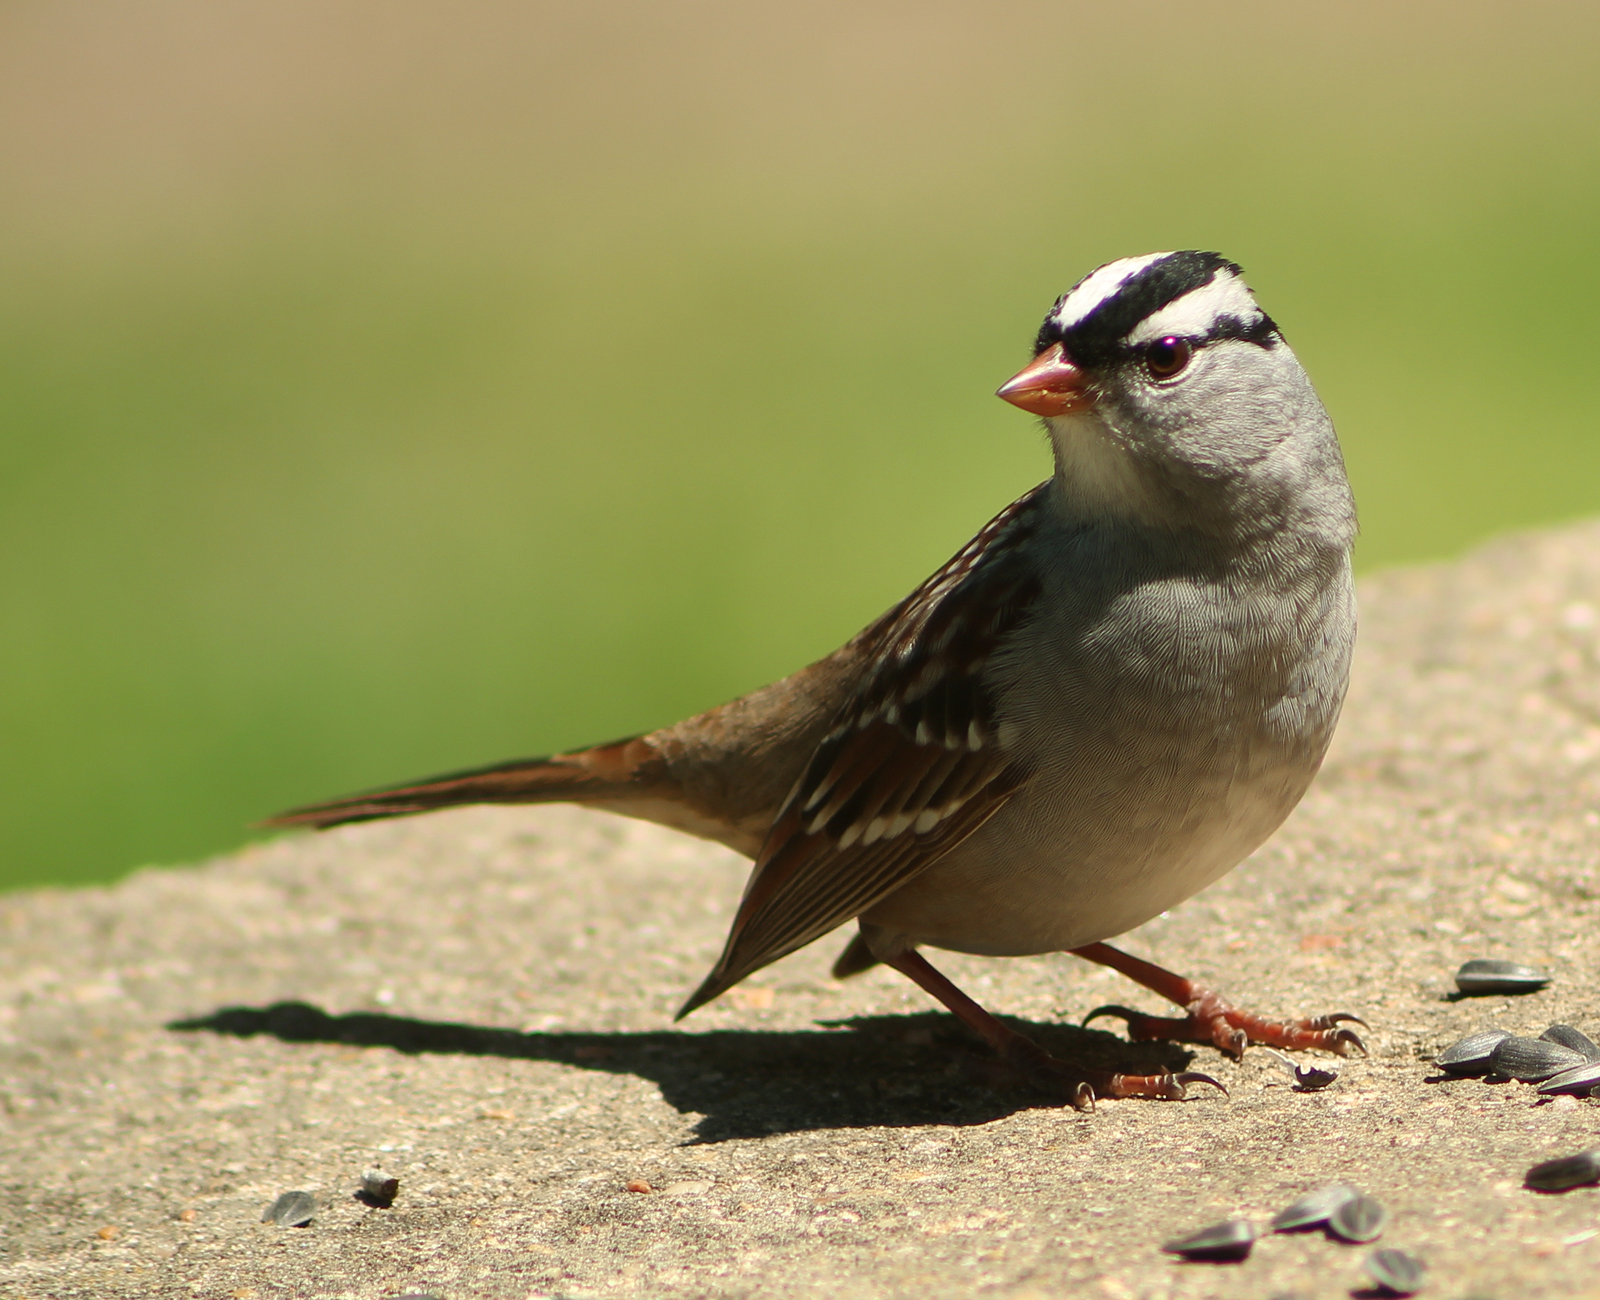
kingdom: Animalia
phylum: Chordata
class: Aves
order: Passeriformes
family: Passerellidae
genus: Zonotrichia
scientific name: Zonotrichia leucophrys
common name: White-crowned sparrow
